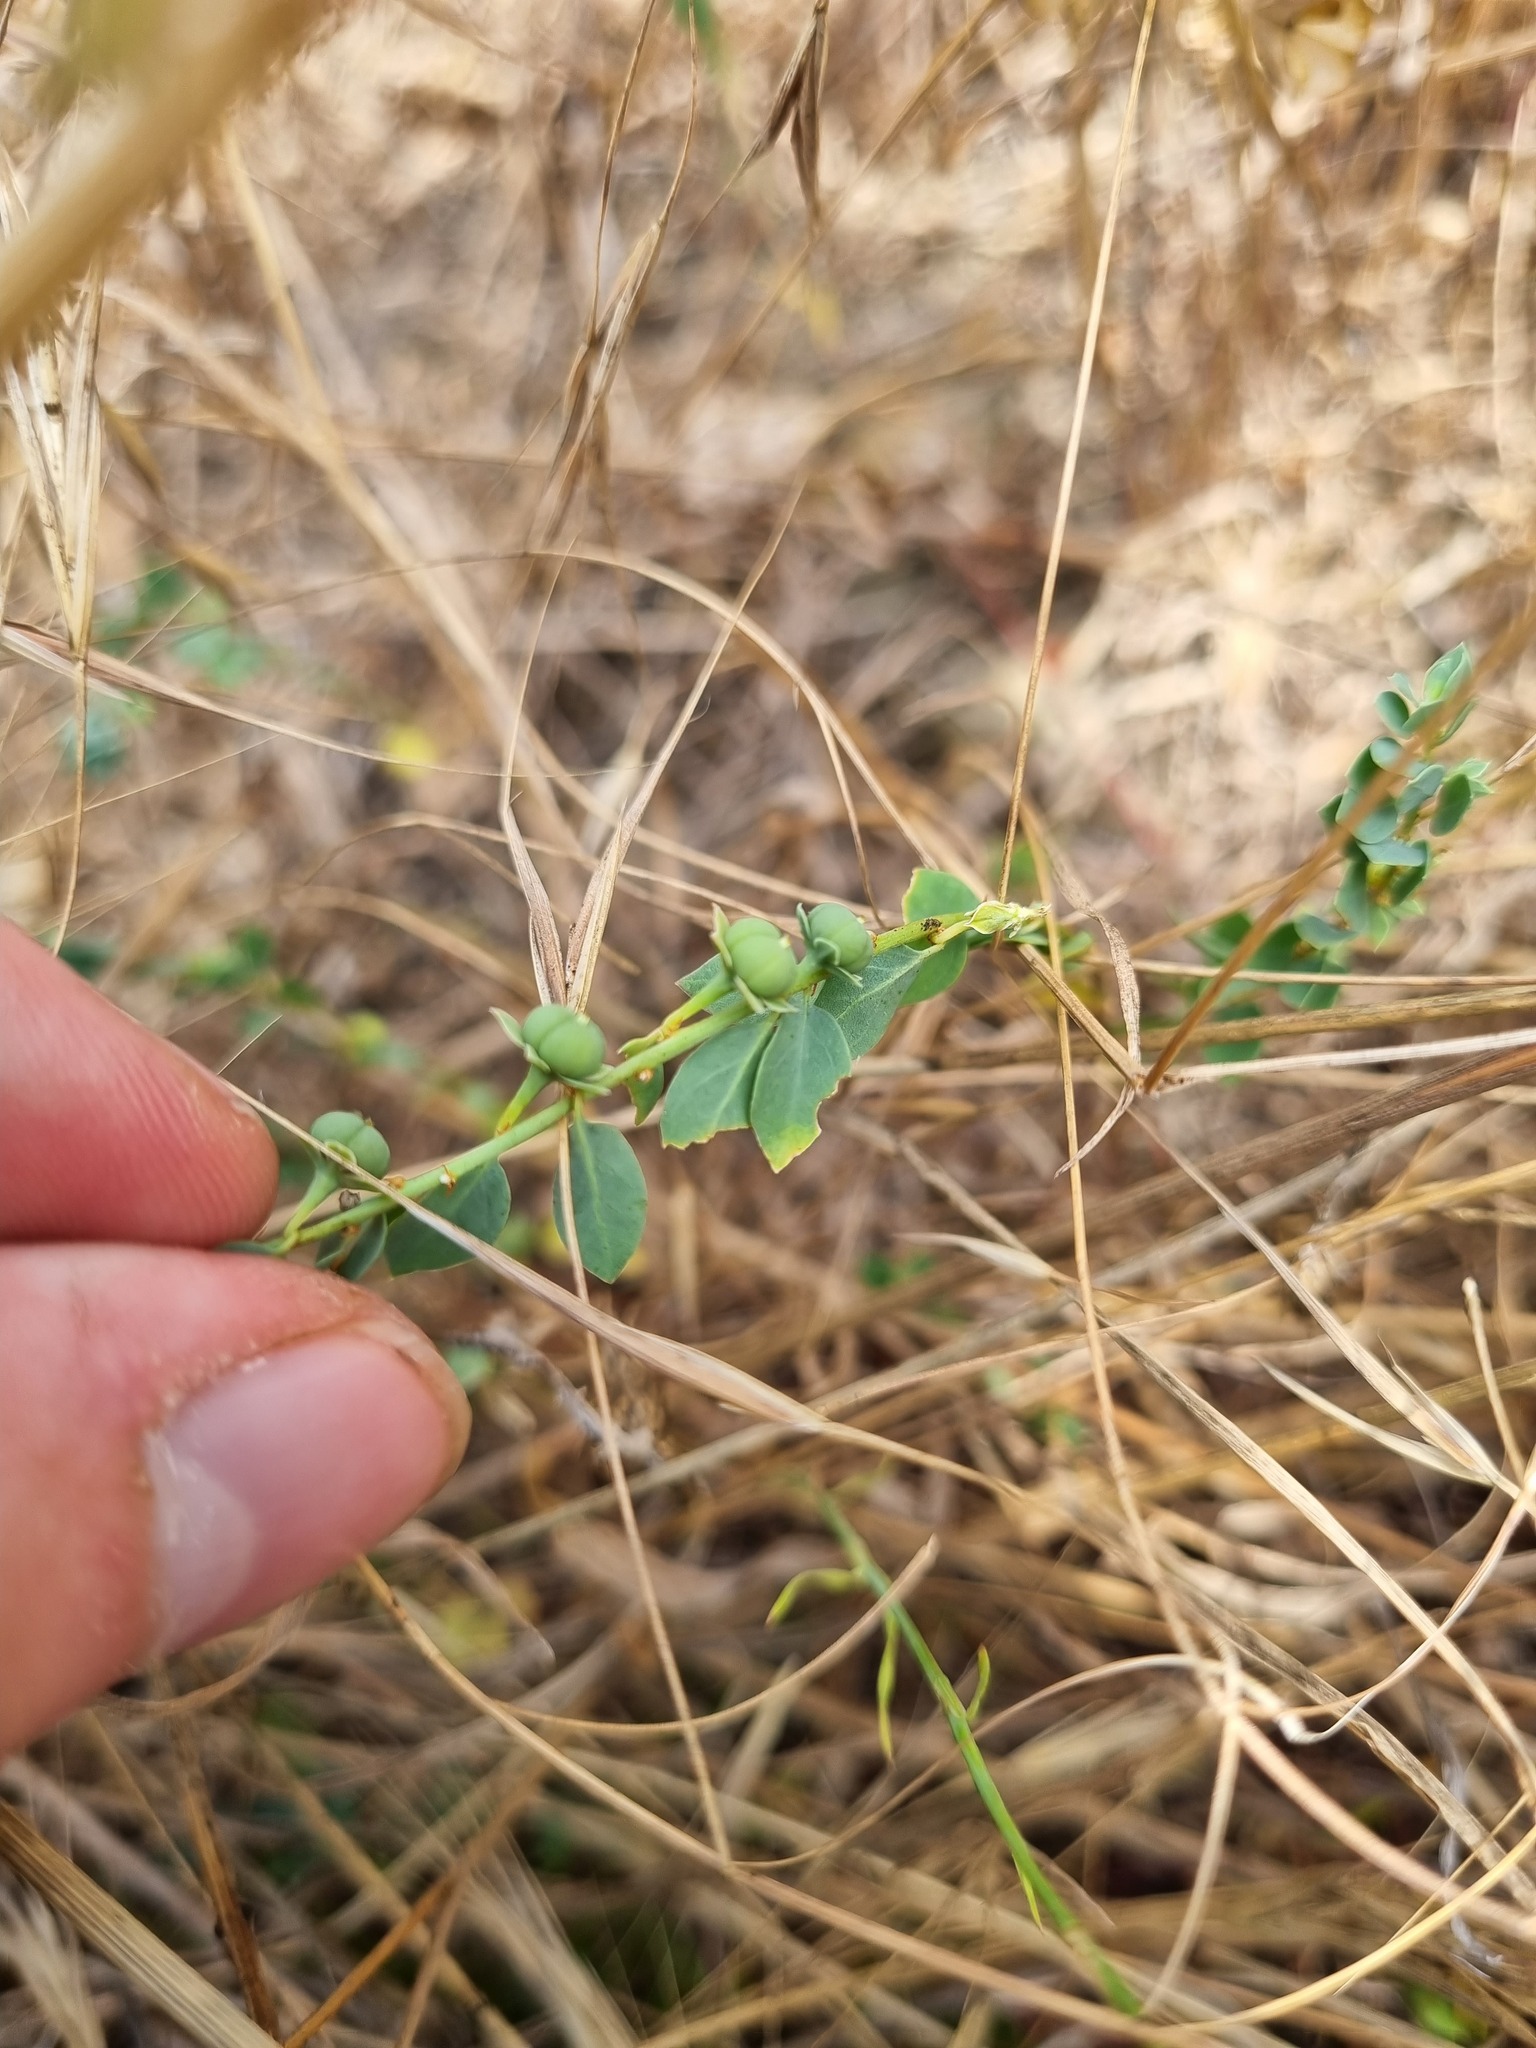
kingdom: Plantae
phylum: Tracheophyta
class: Magnoliopsida
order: Malpighiales
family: Phyllanthaceae
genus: Andrachne
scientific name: Andrachne telephioides
